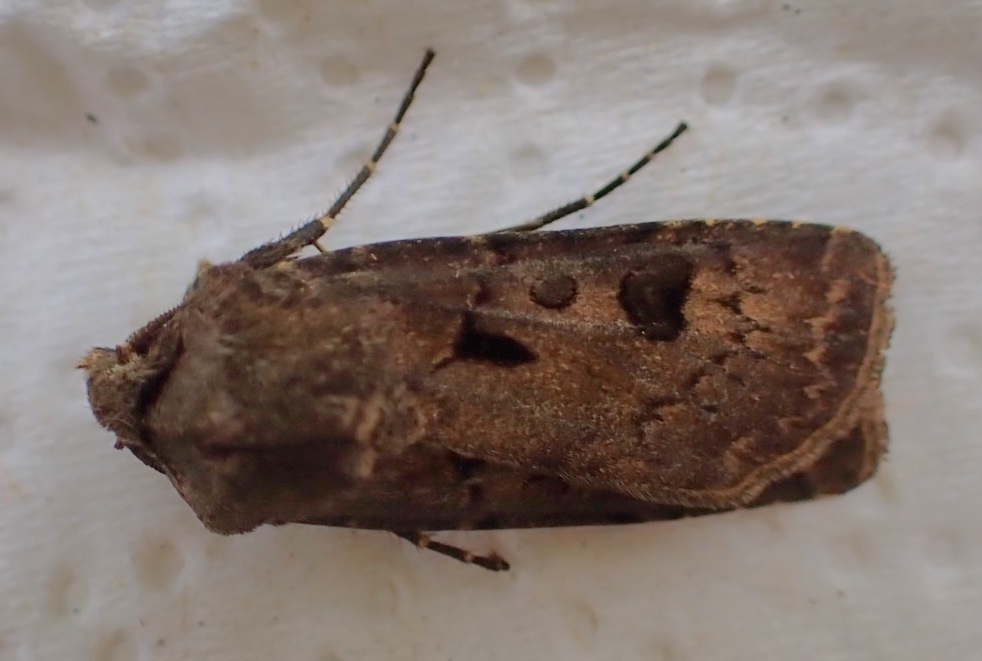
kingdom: Animalia
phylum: Arthropoda
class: Insecta
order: Lepidoptera
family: Noctuidae
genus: Agrotis
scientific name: Agrotis exclamationis
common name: Heart and dart
